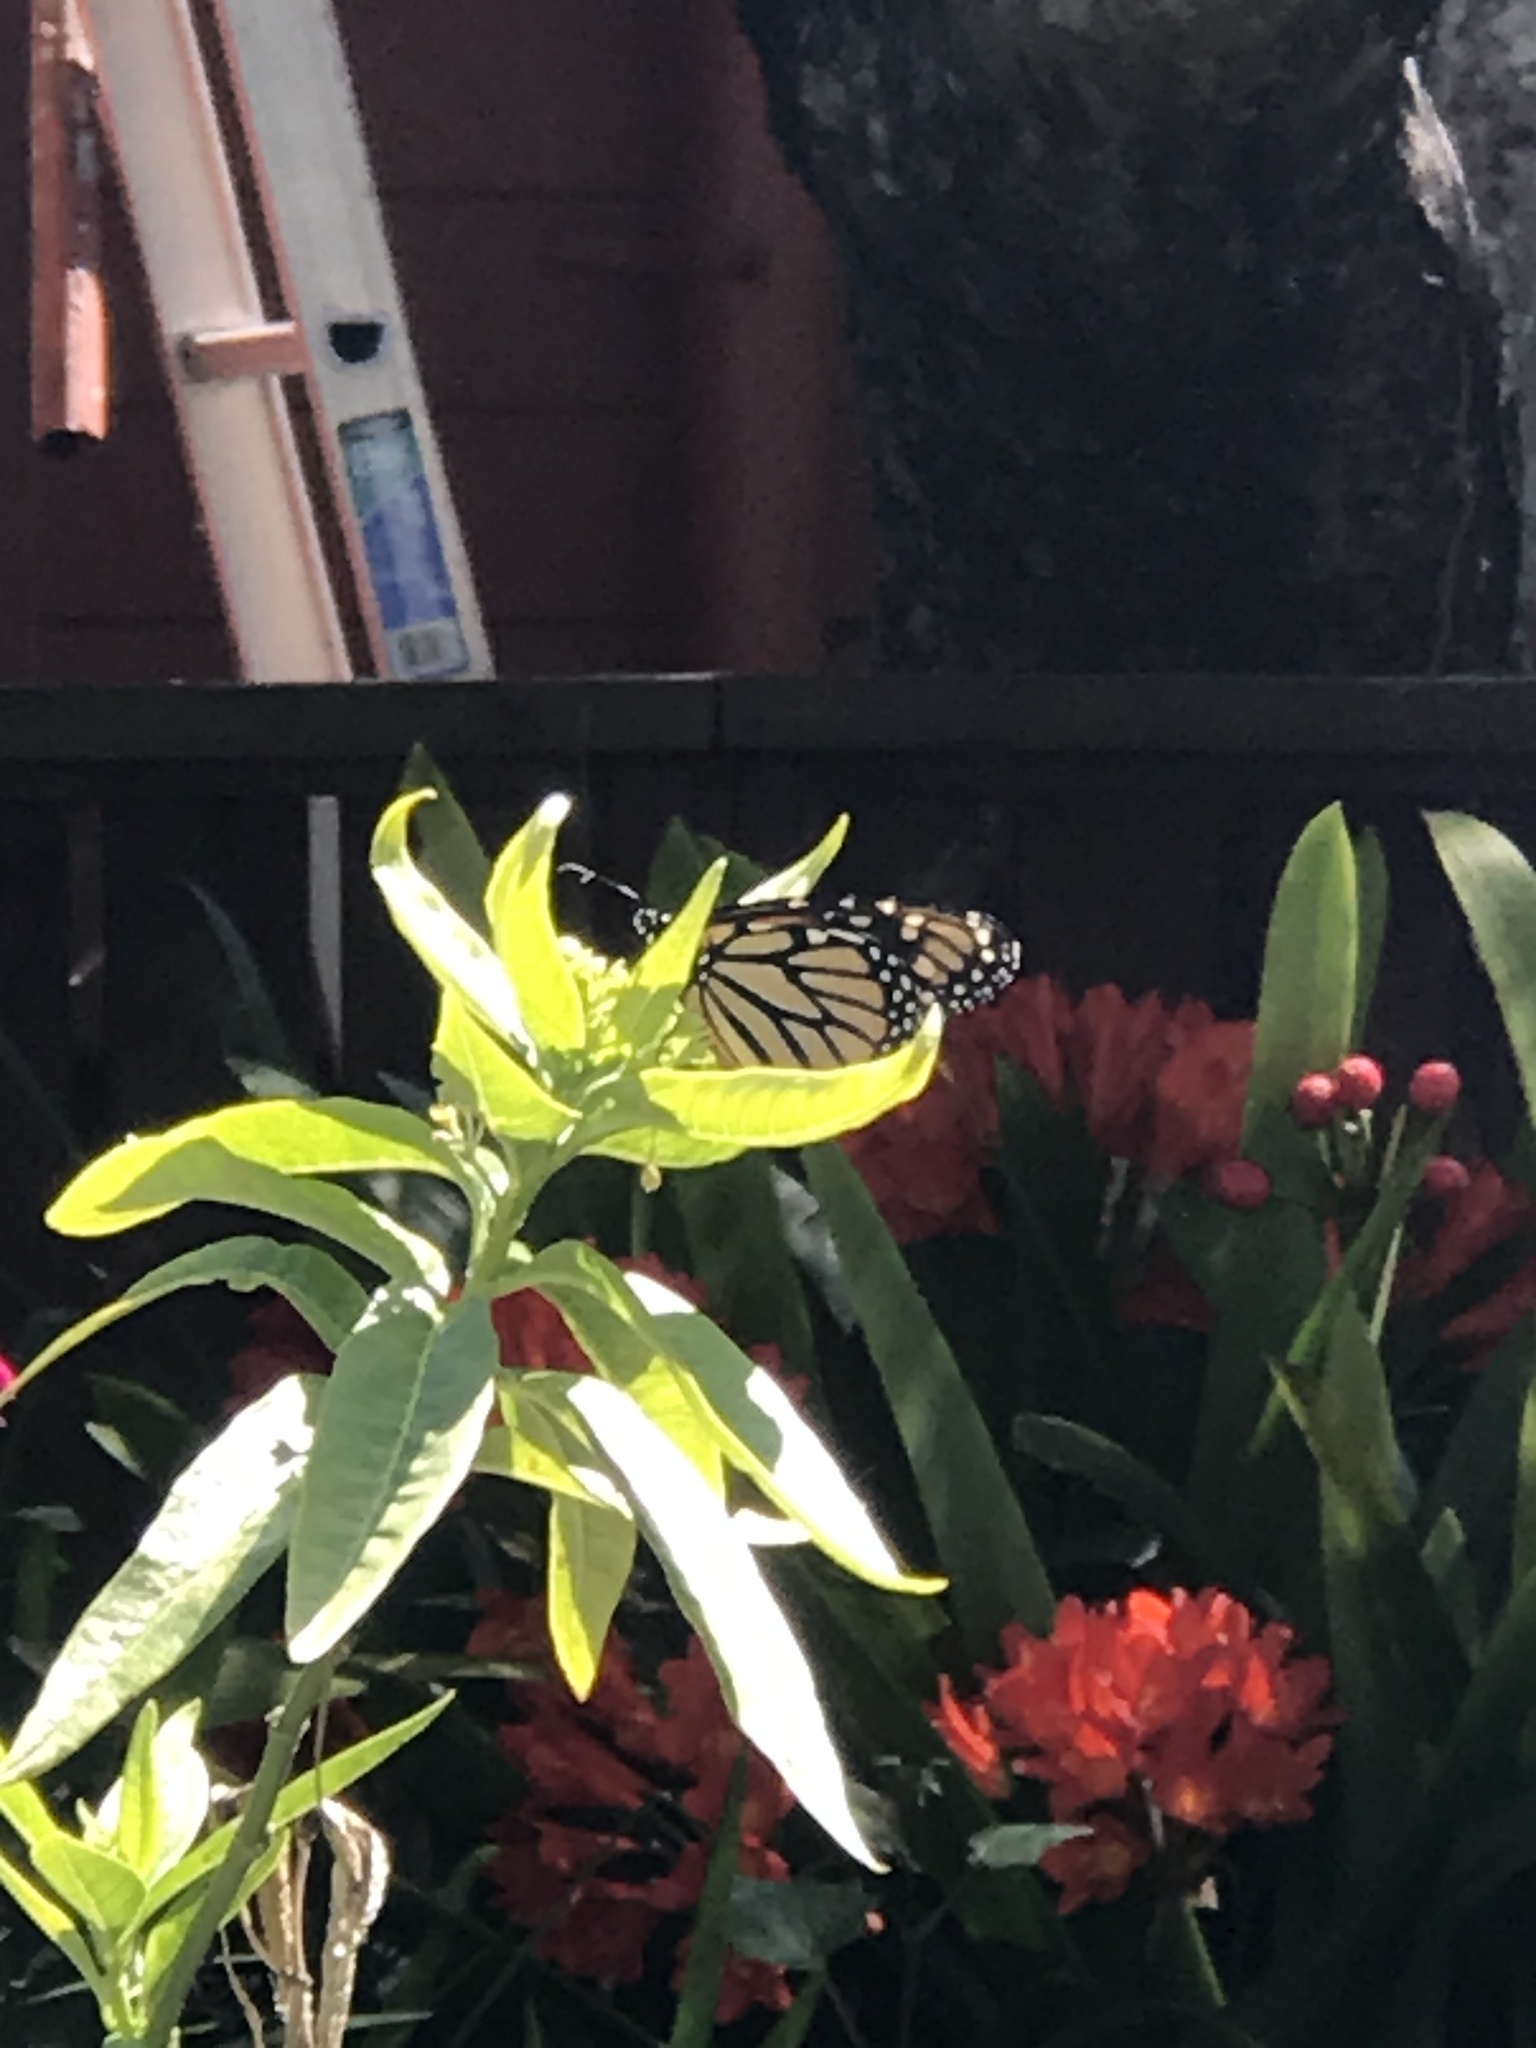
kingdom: Animalia
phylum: Arthropoda
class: Insecta
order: Lepidoptera
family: Nymphalidae
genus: Danaus
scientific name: Danaus plexippus
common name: Monarch
